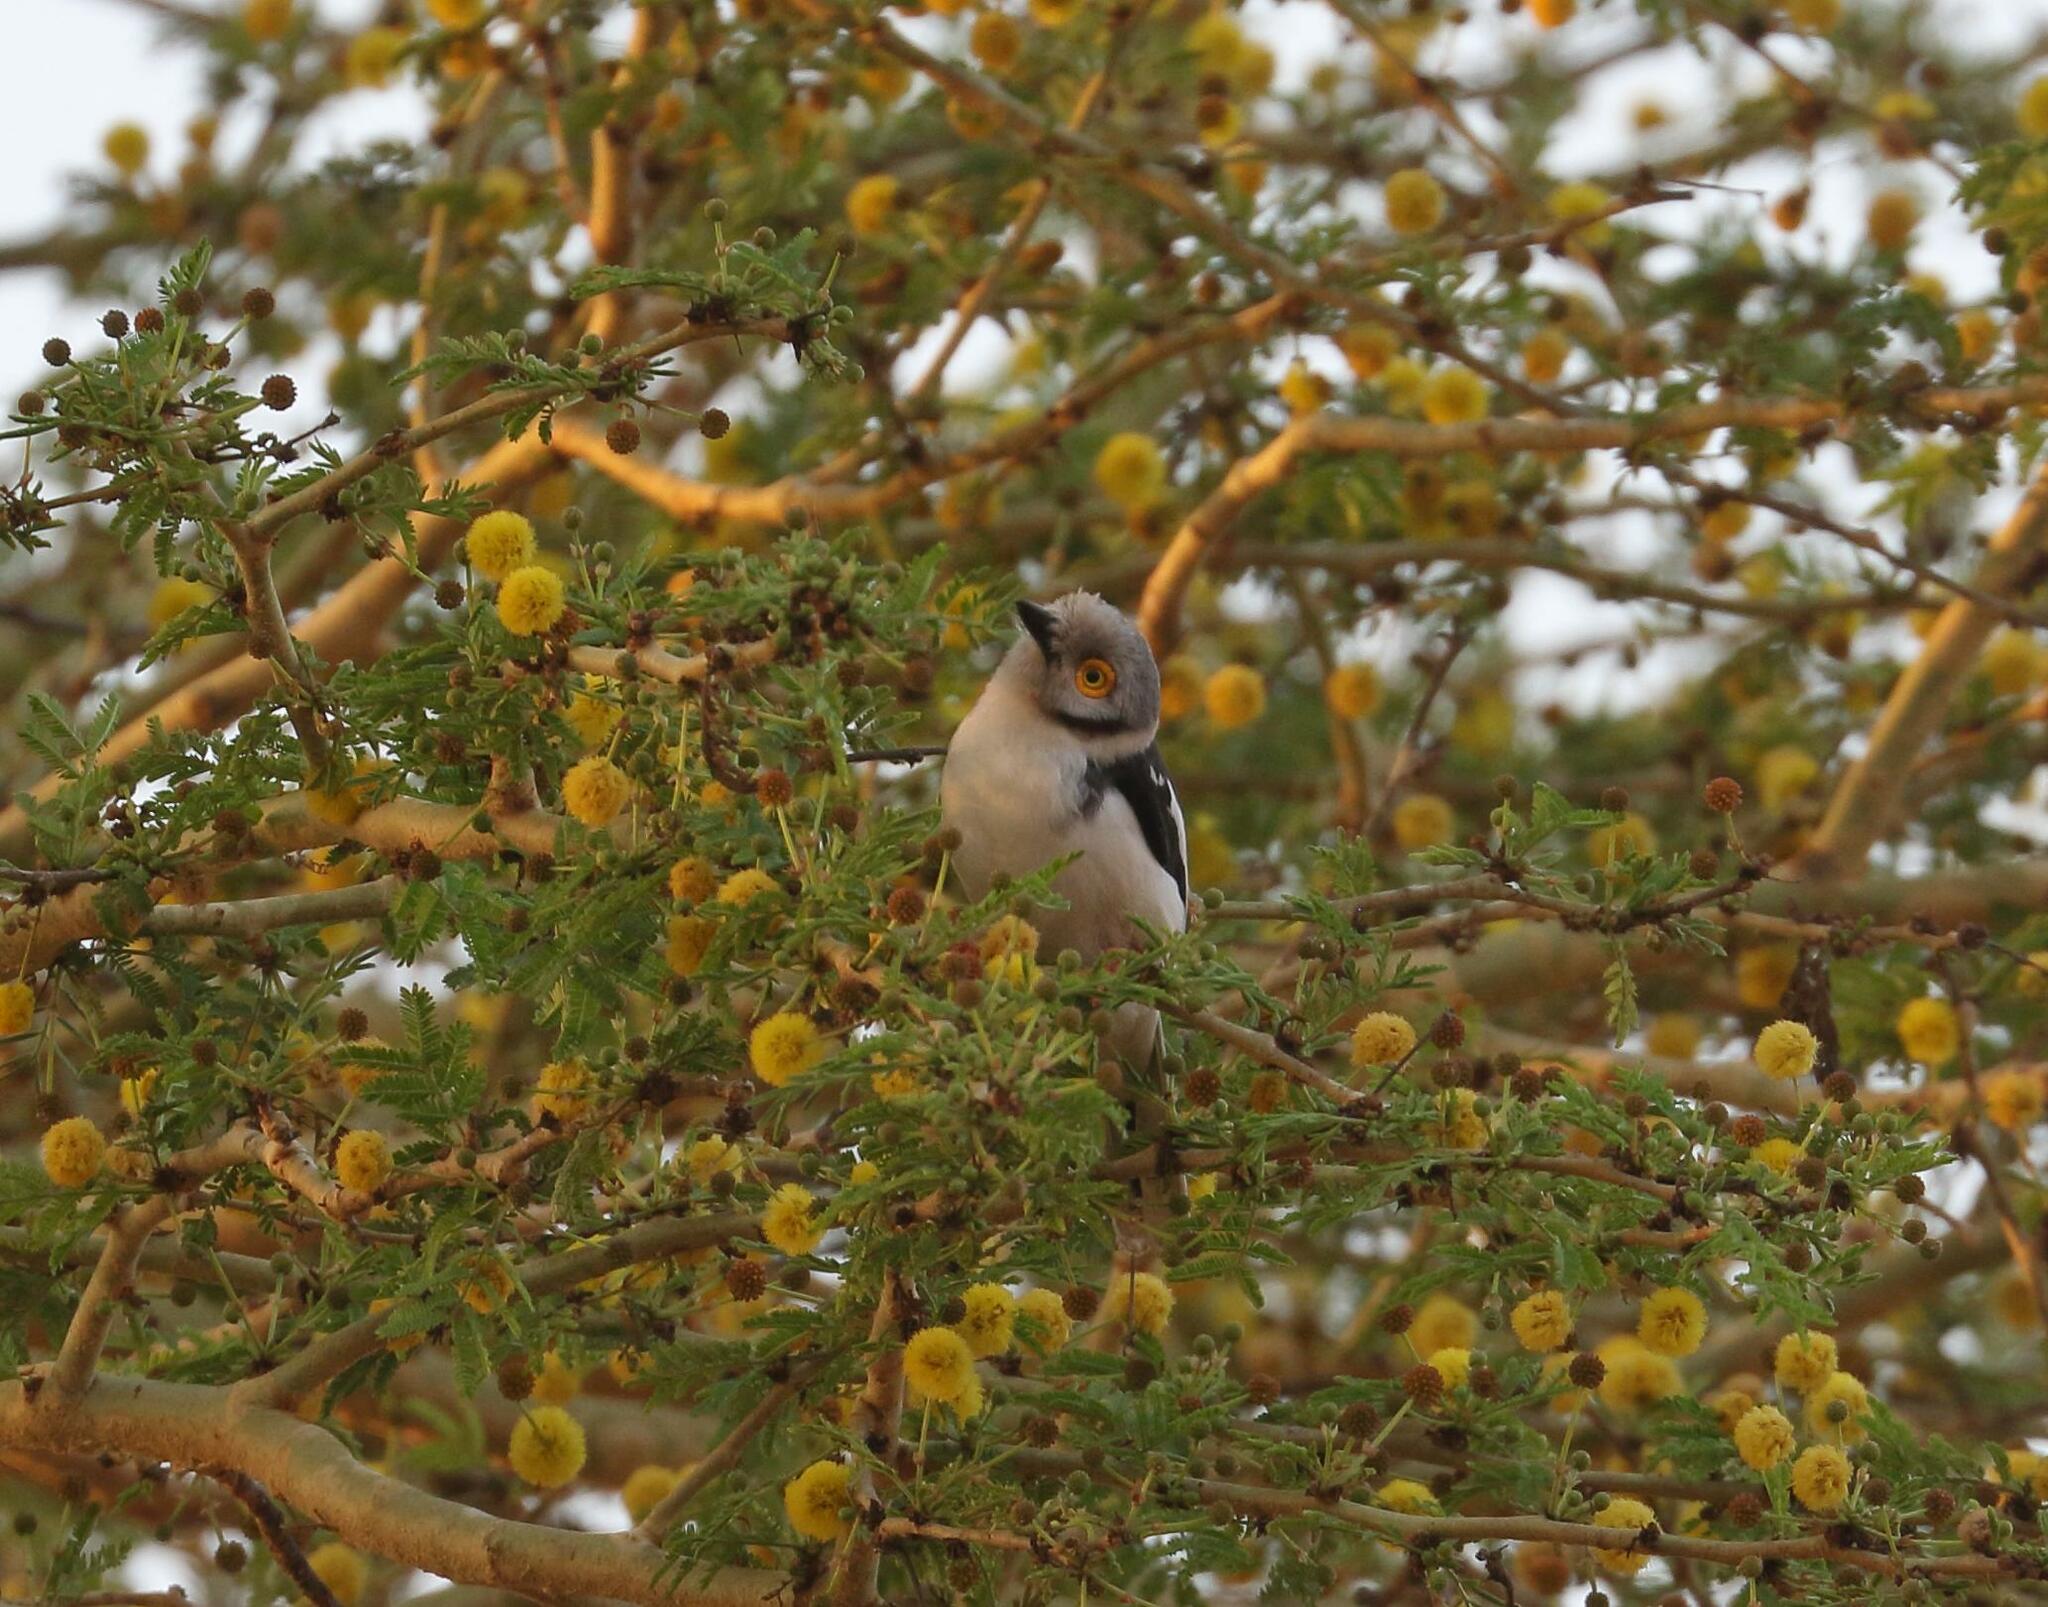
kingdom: Animalia
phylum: Chordata
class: Aves
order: Passeriformes
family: Prionopidae
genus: Prionops
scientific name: Prionops plumatus
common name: White-crested helmetshrike
